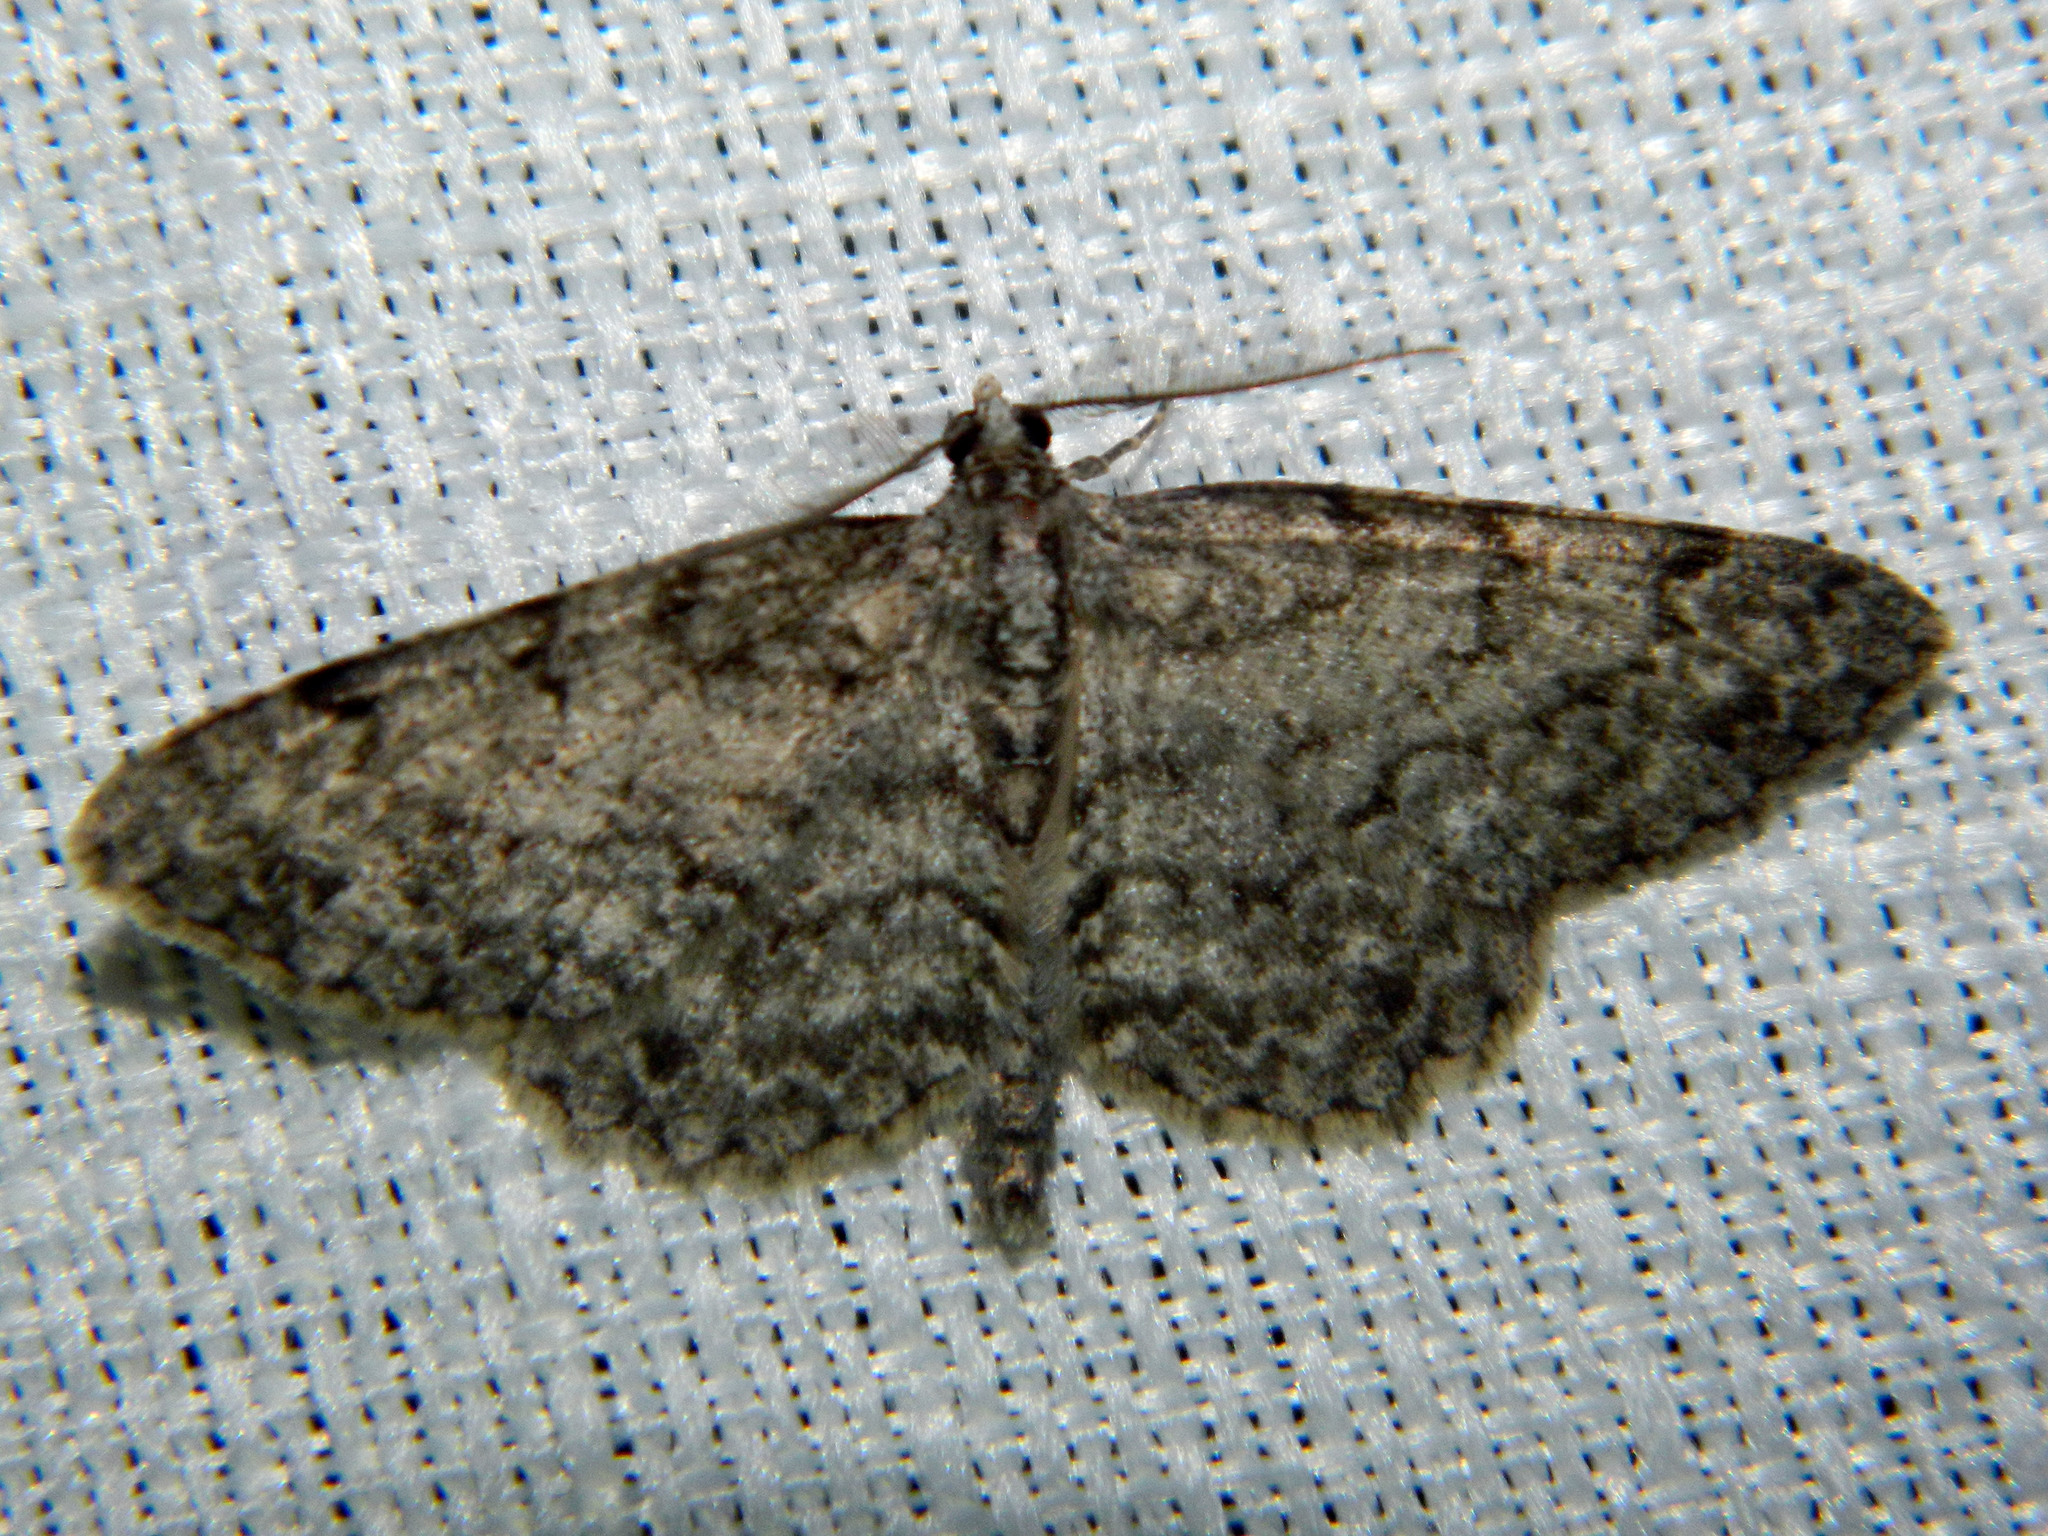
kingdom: Animalia
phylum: Arthropoda
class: Insecta
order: Lepidoptera
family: Geometridae
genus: Protoboarmia
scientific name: Protoboarmia porcelaria
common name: Porcelain gray
